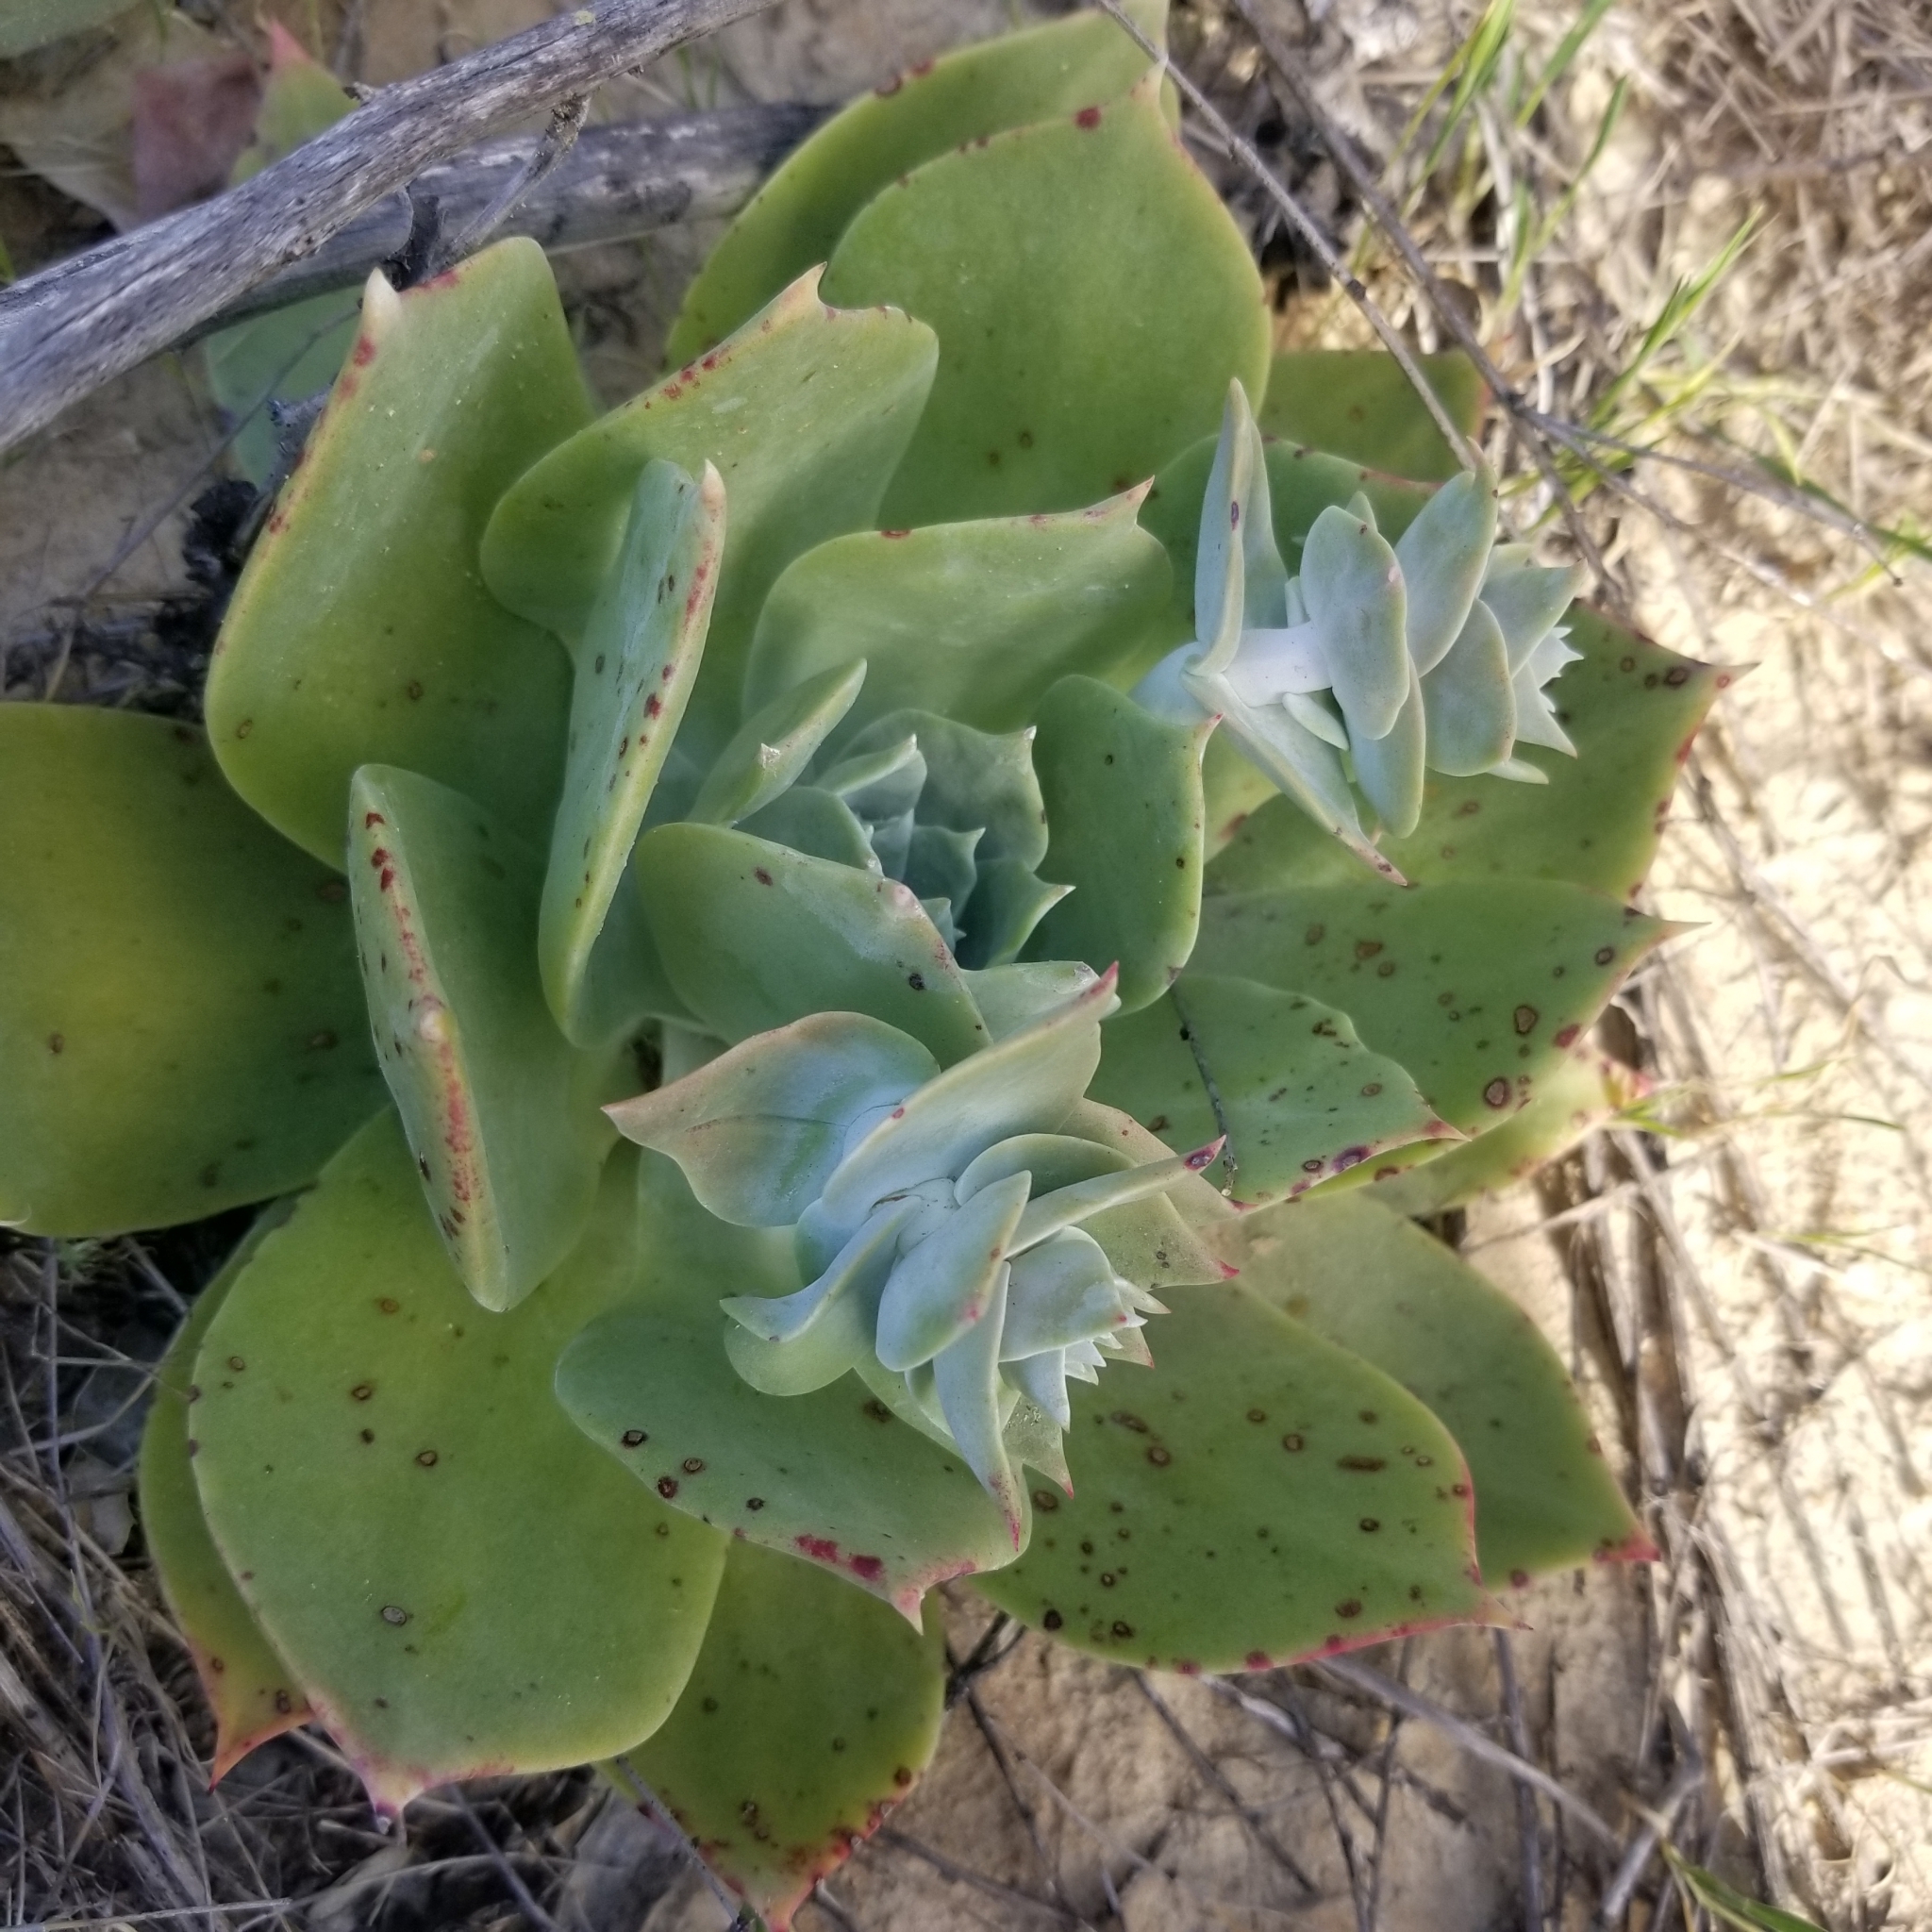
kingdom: Plantae
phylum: Tracheophyta
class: Magnoliopsida
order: Saxifragales
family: Crassulaceae
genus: Dudleya
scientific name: Dudleya pulverulenta
